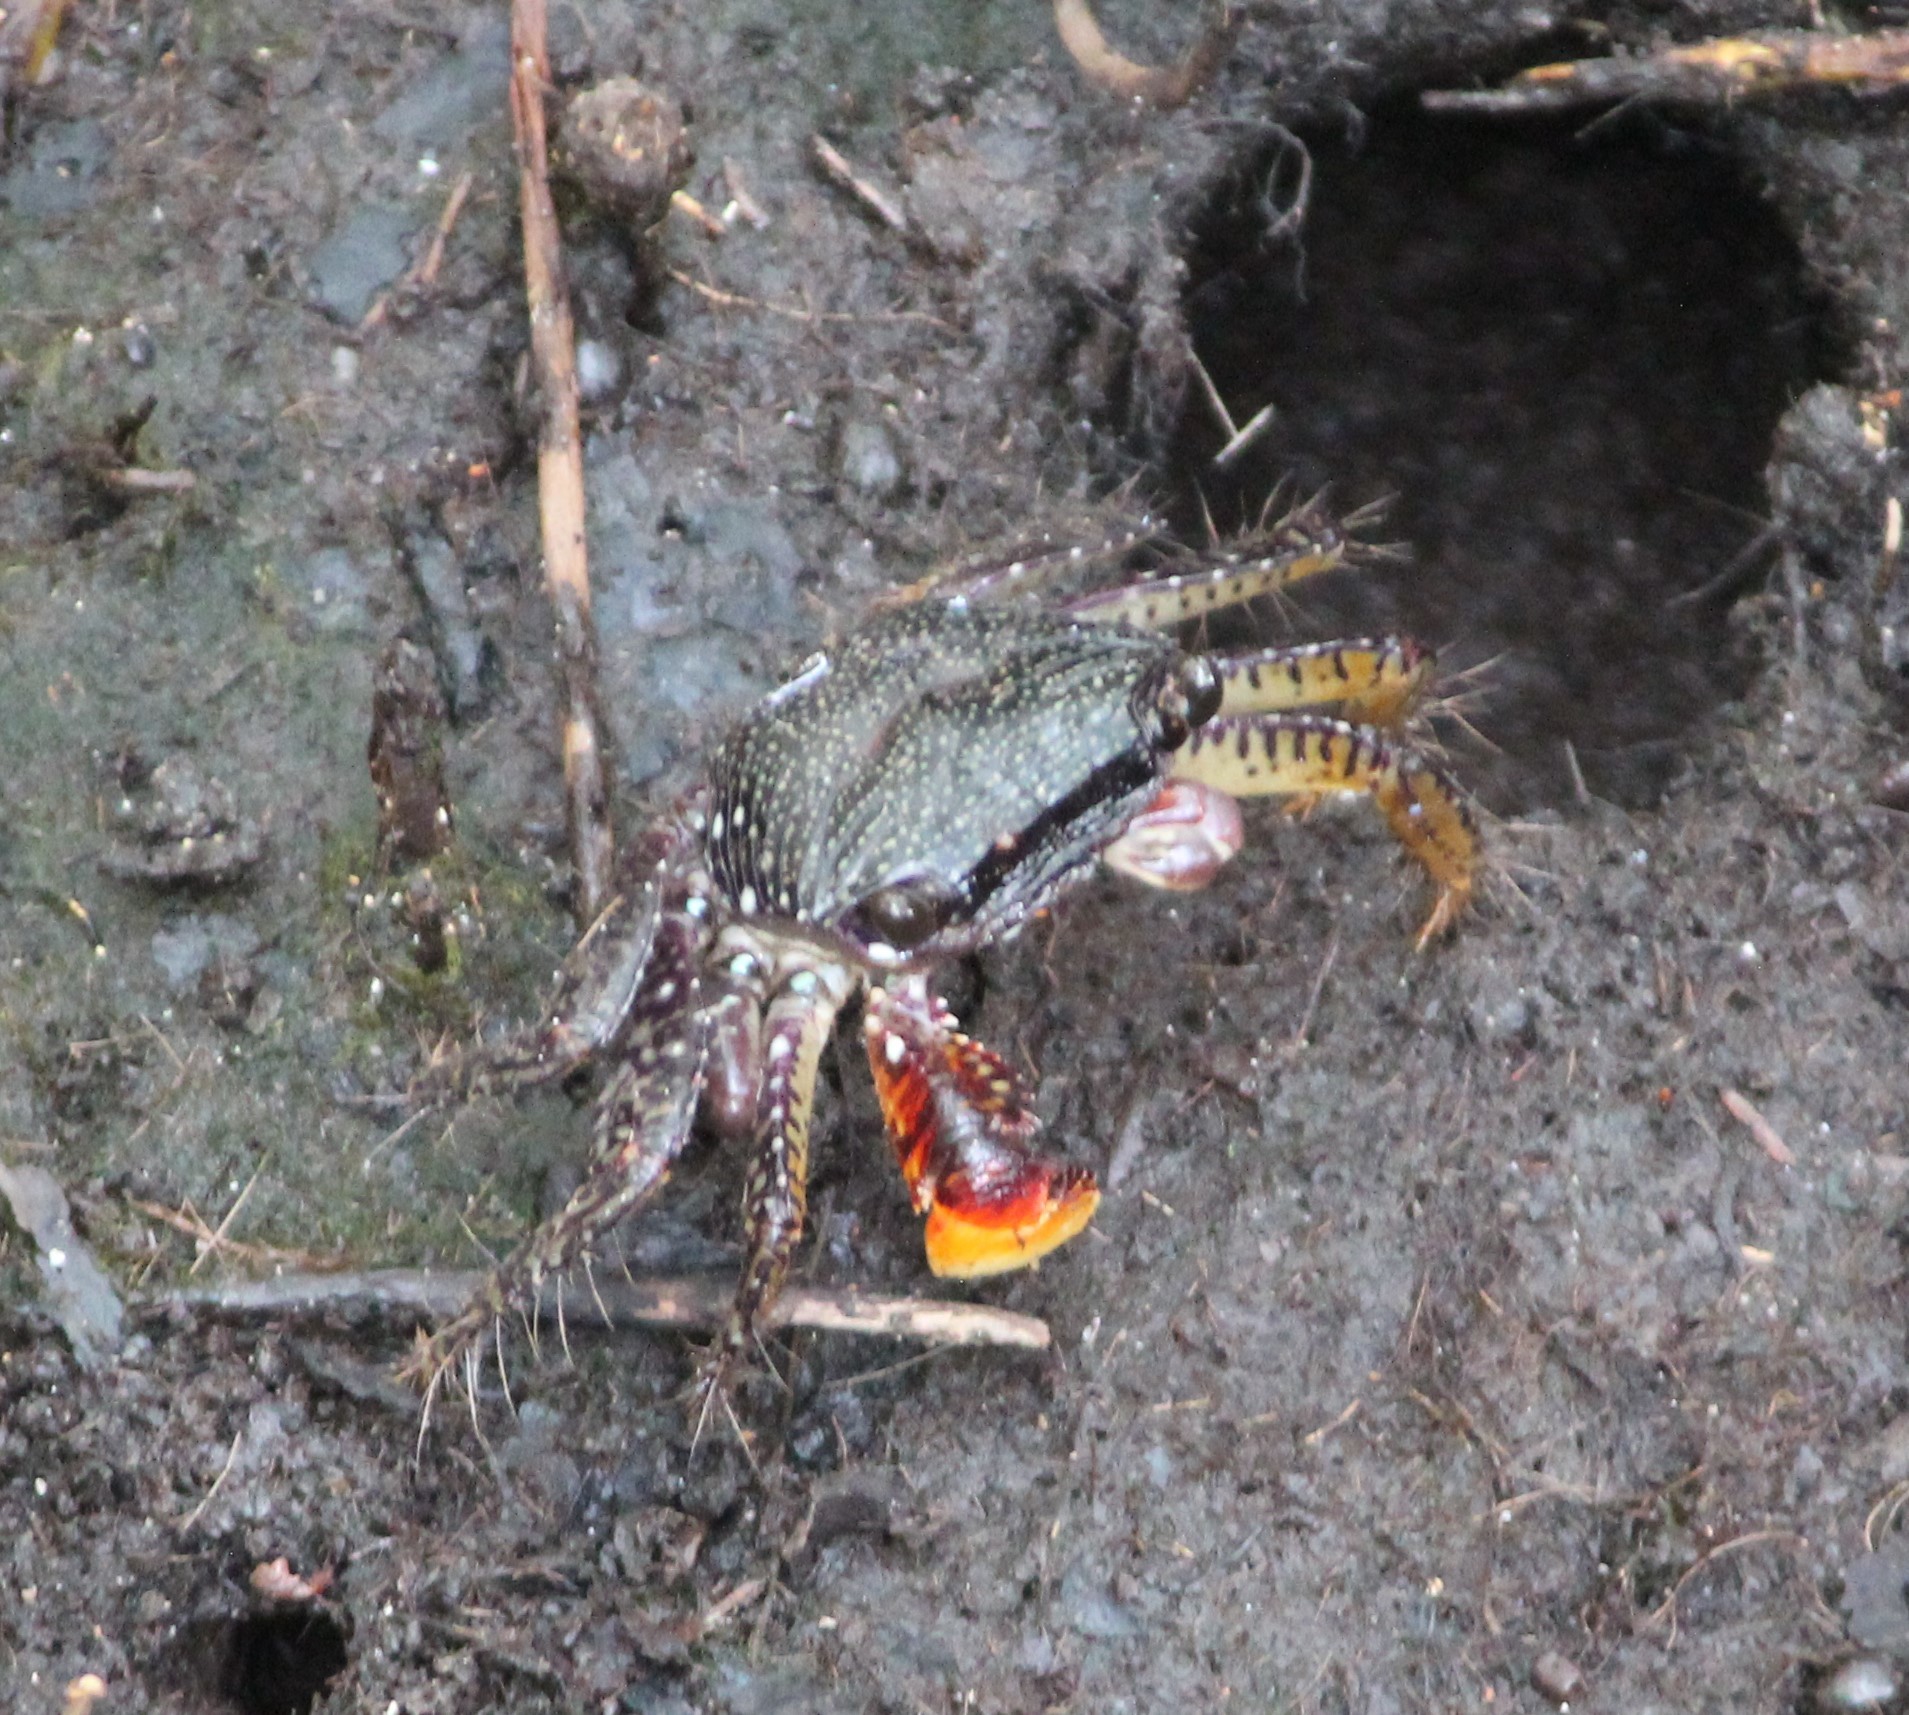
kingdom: Animalia
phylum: Arthropoda
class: Malacostraca
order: Decapoda
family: Grapsidae
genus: Goniopsis
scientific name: Goniopsis pulchra
